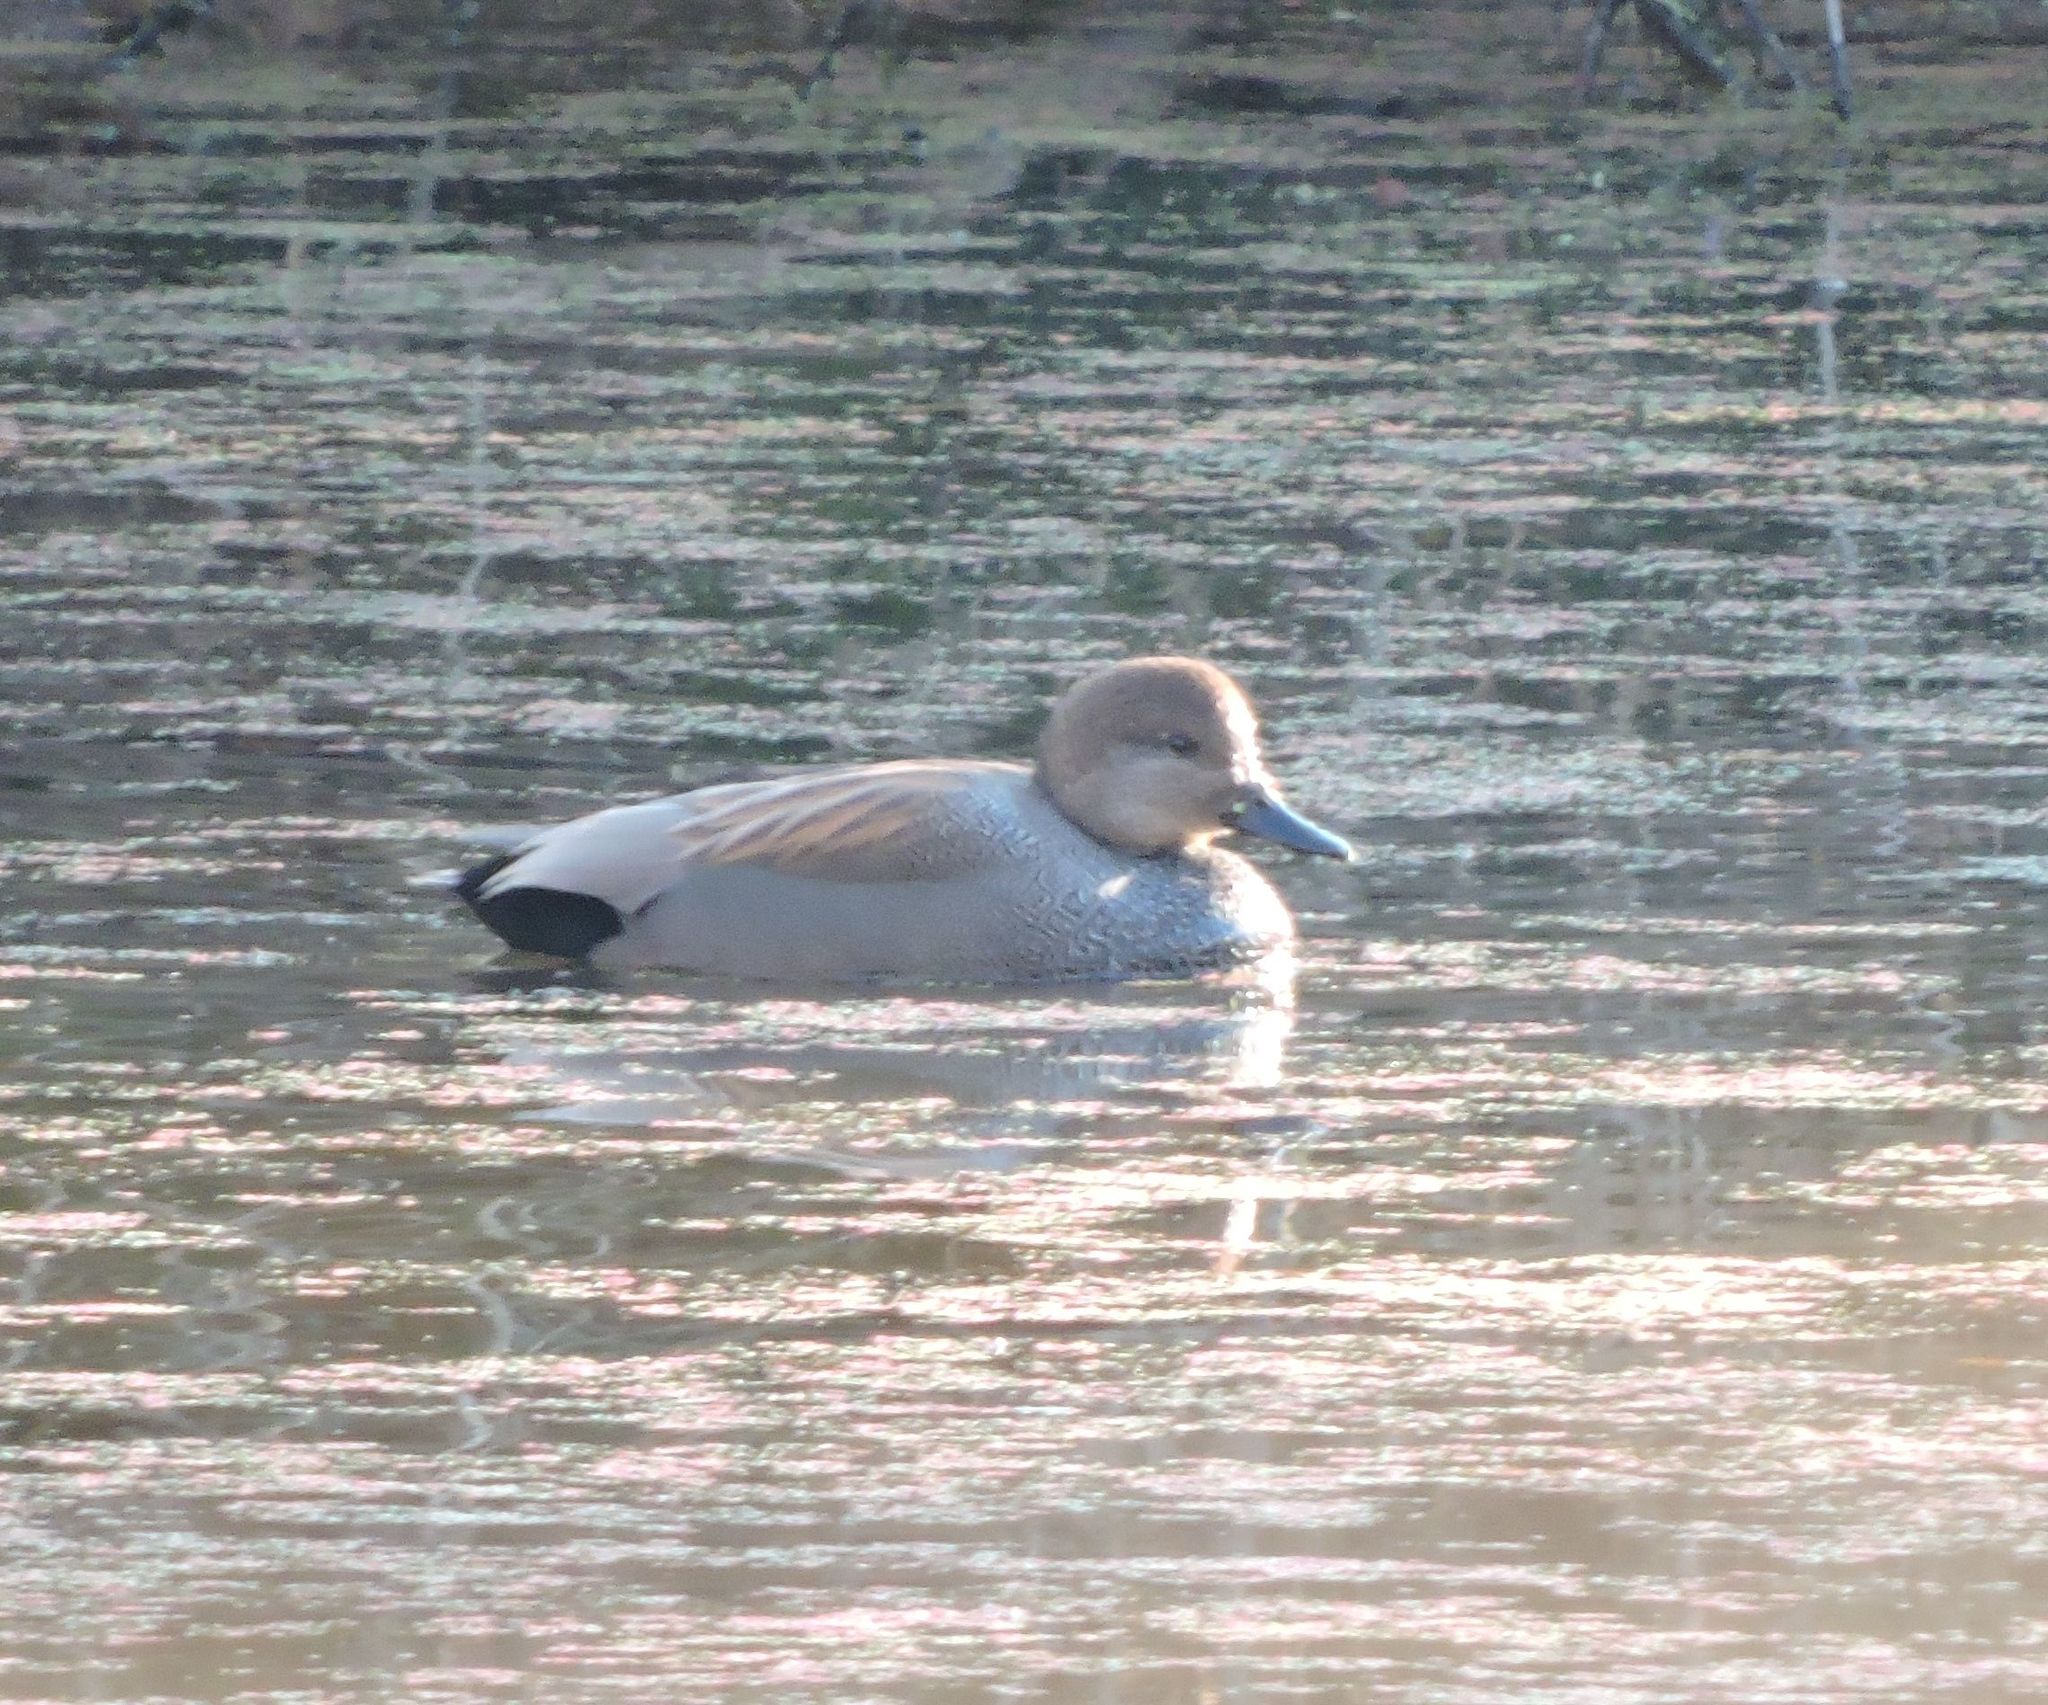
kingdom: Animalia
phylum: Chordata
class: Aves
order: Anseriformes
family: Anatidae
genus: Mareca
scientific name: Mareca strepera
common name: Gadwall
